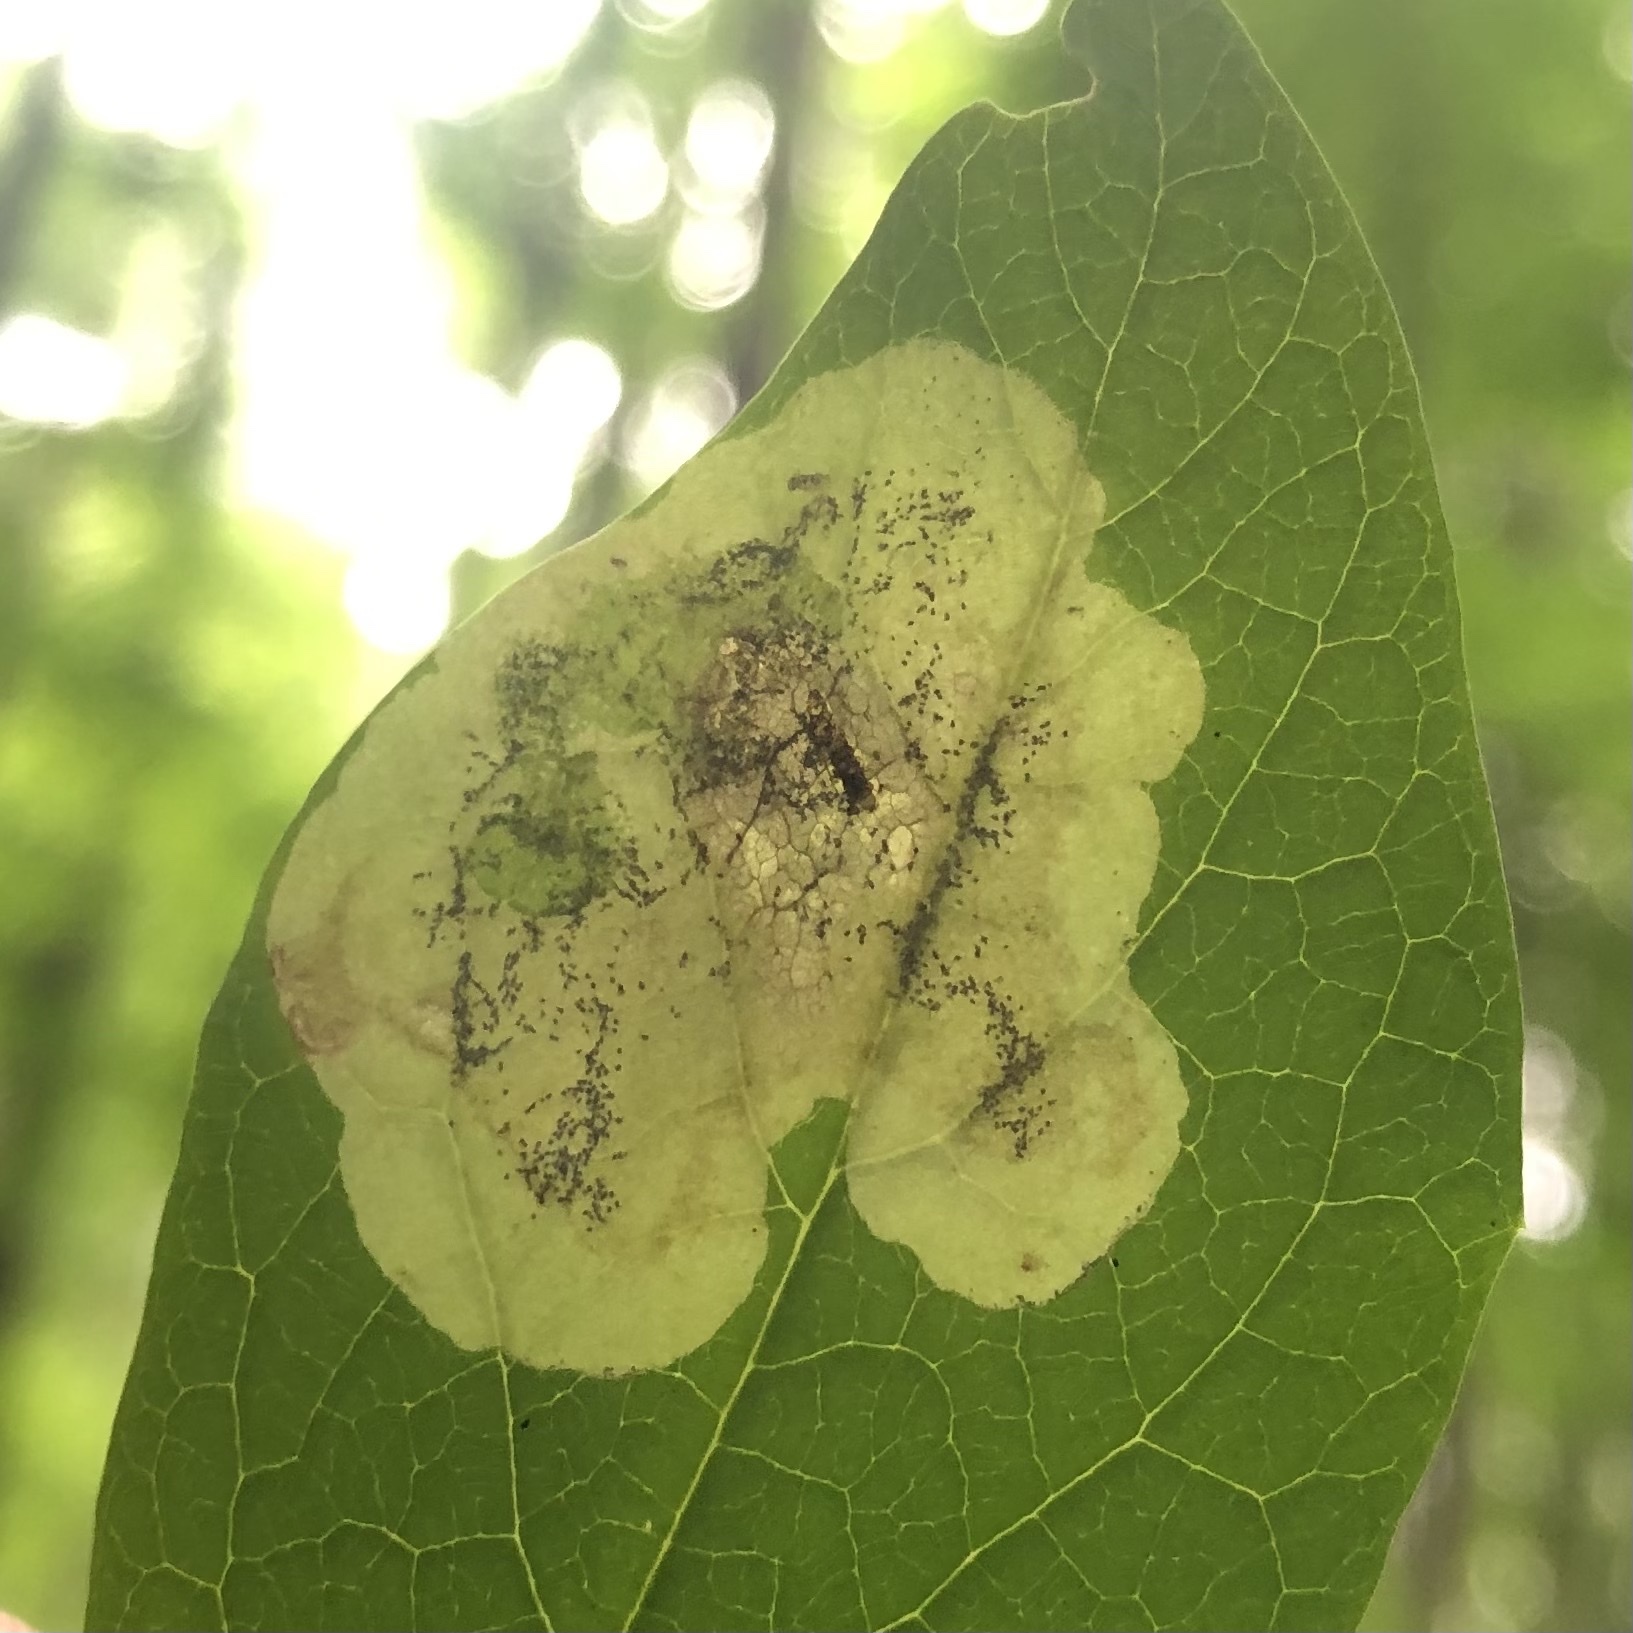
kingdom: Animalia
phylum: Arthropoda
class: Insecta
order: Lepidoptera
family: Gracillariidae
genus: Leucanthiza
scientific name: Leucanthiza dircella
